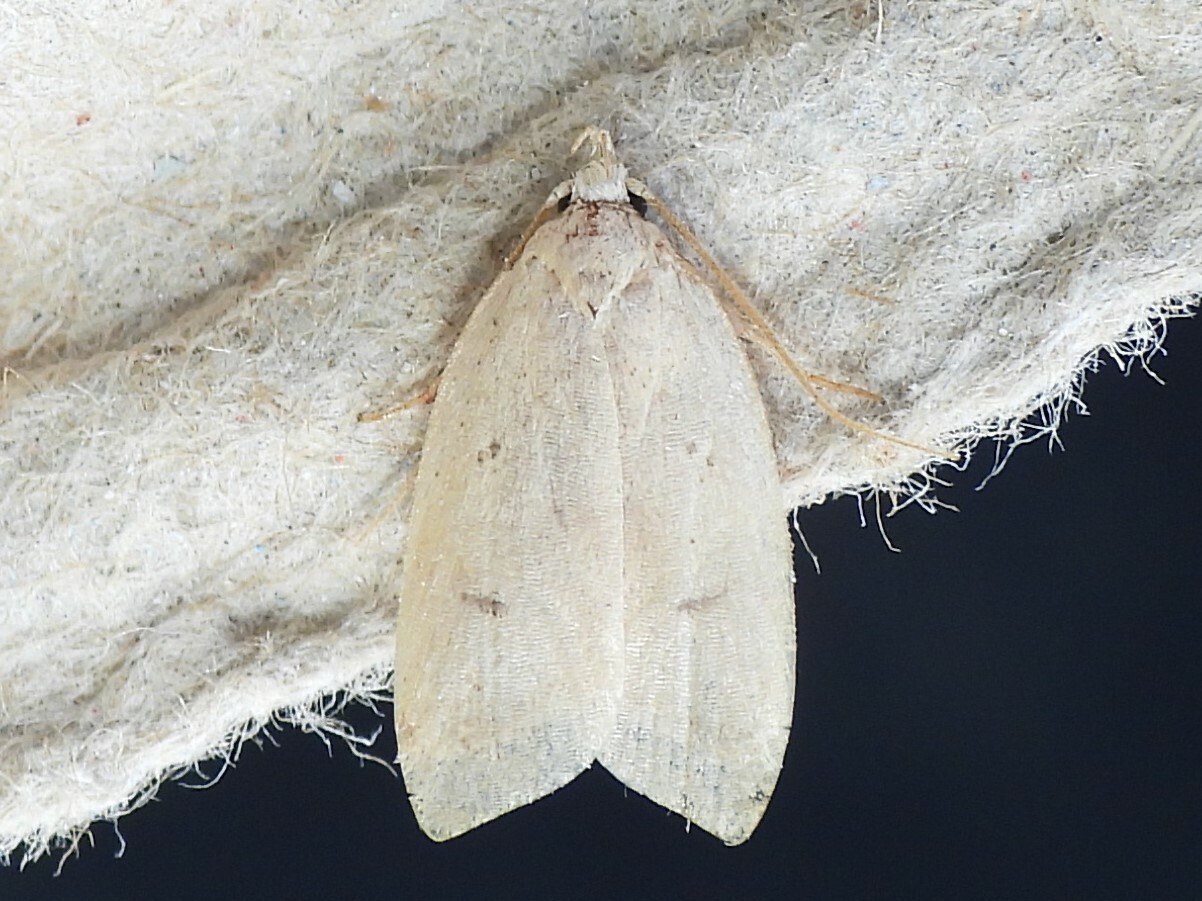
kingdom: Animalia
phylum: Arthropoda
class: Insecta
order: Lepidoptera
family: Peleopodidae
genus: Machimia
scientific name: Machimia tentoriferella
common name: Gold-striped leaftier moth
